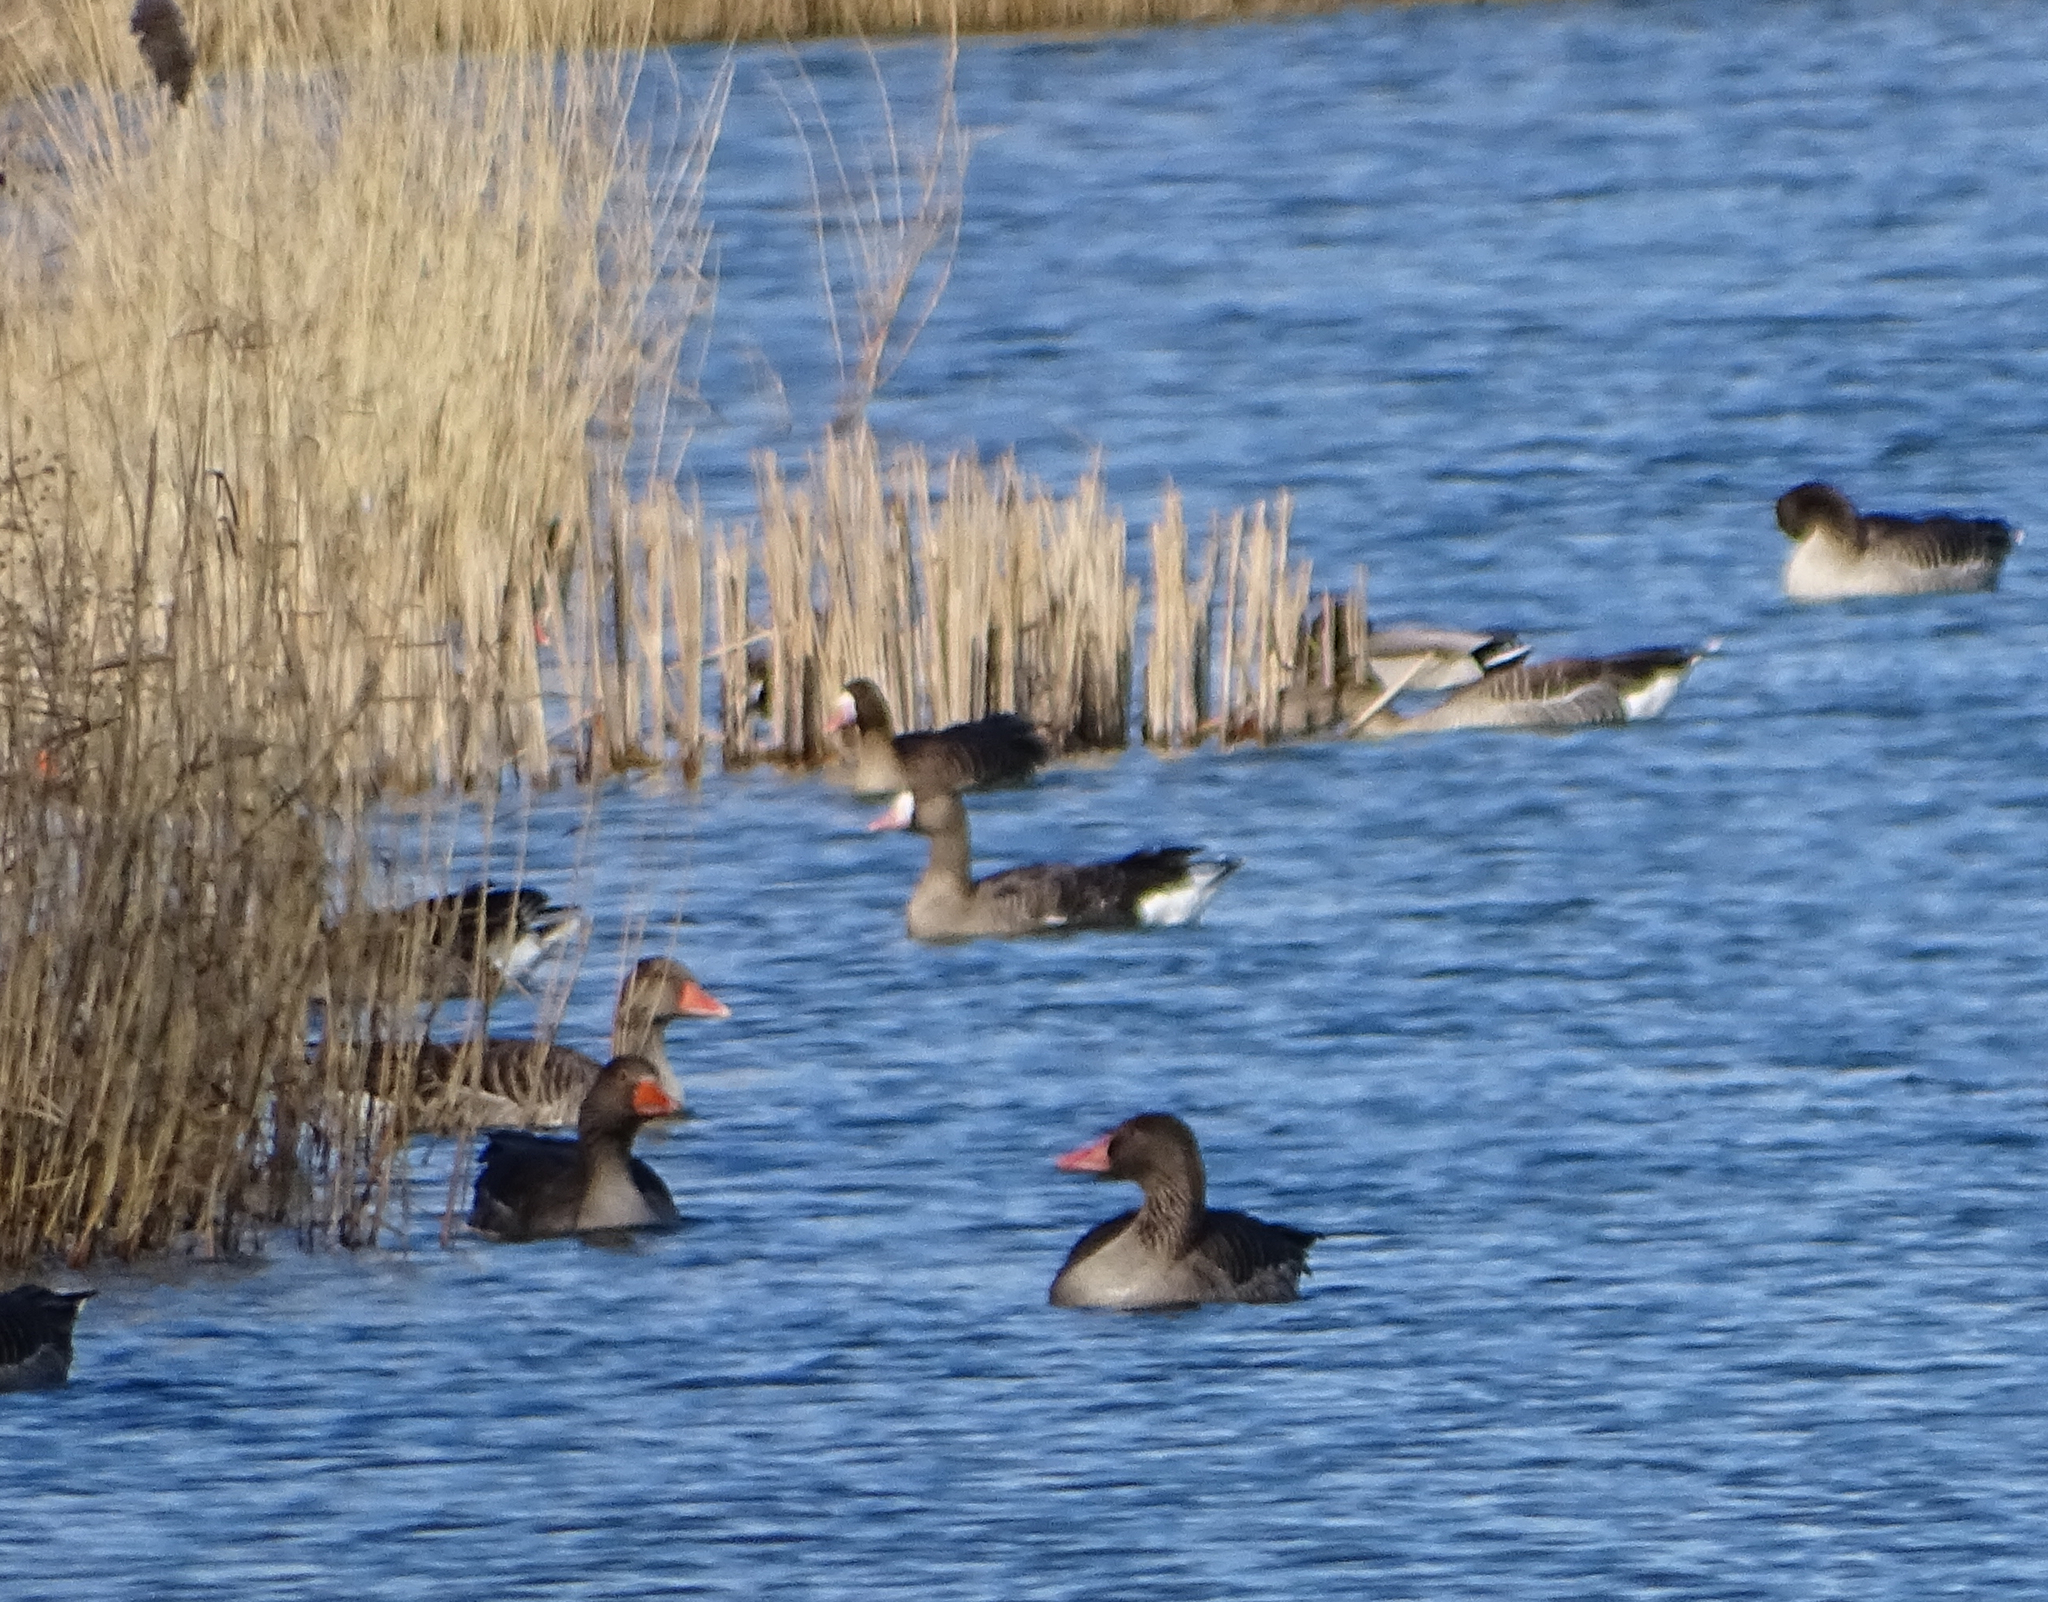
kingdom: Animalia
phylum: Chordata
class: Aves
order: Anseriformes
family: Anatidae
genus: Anser
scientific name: Anser albifrons
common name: Greater white-fronted goose
